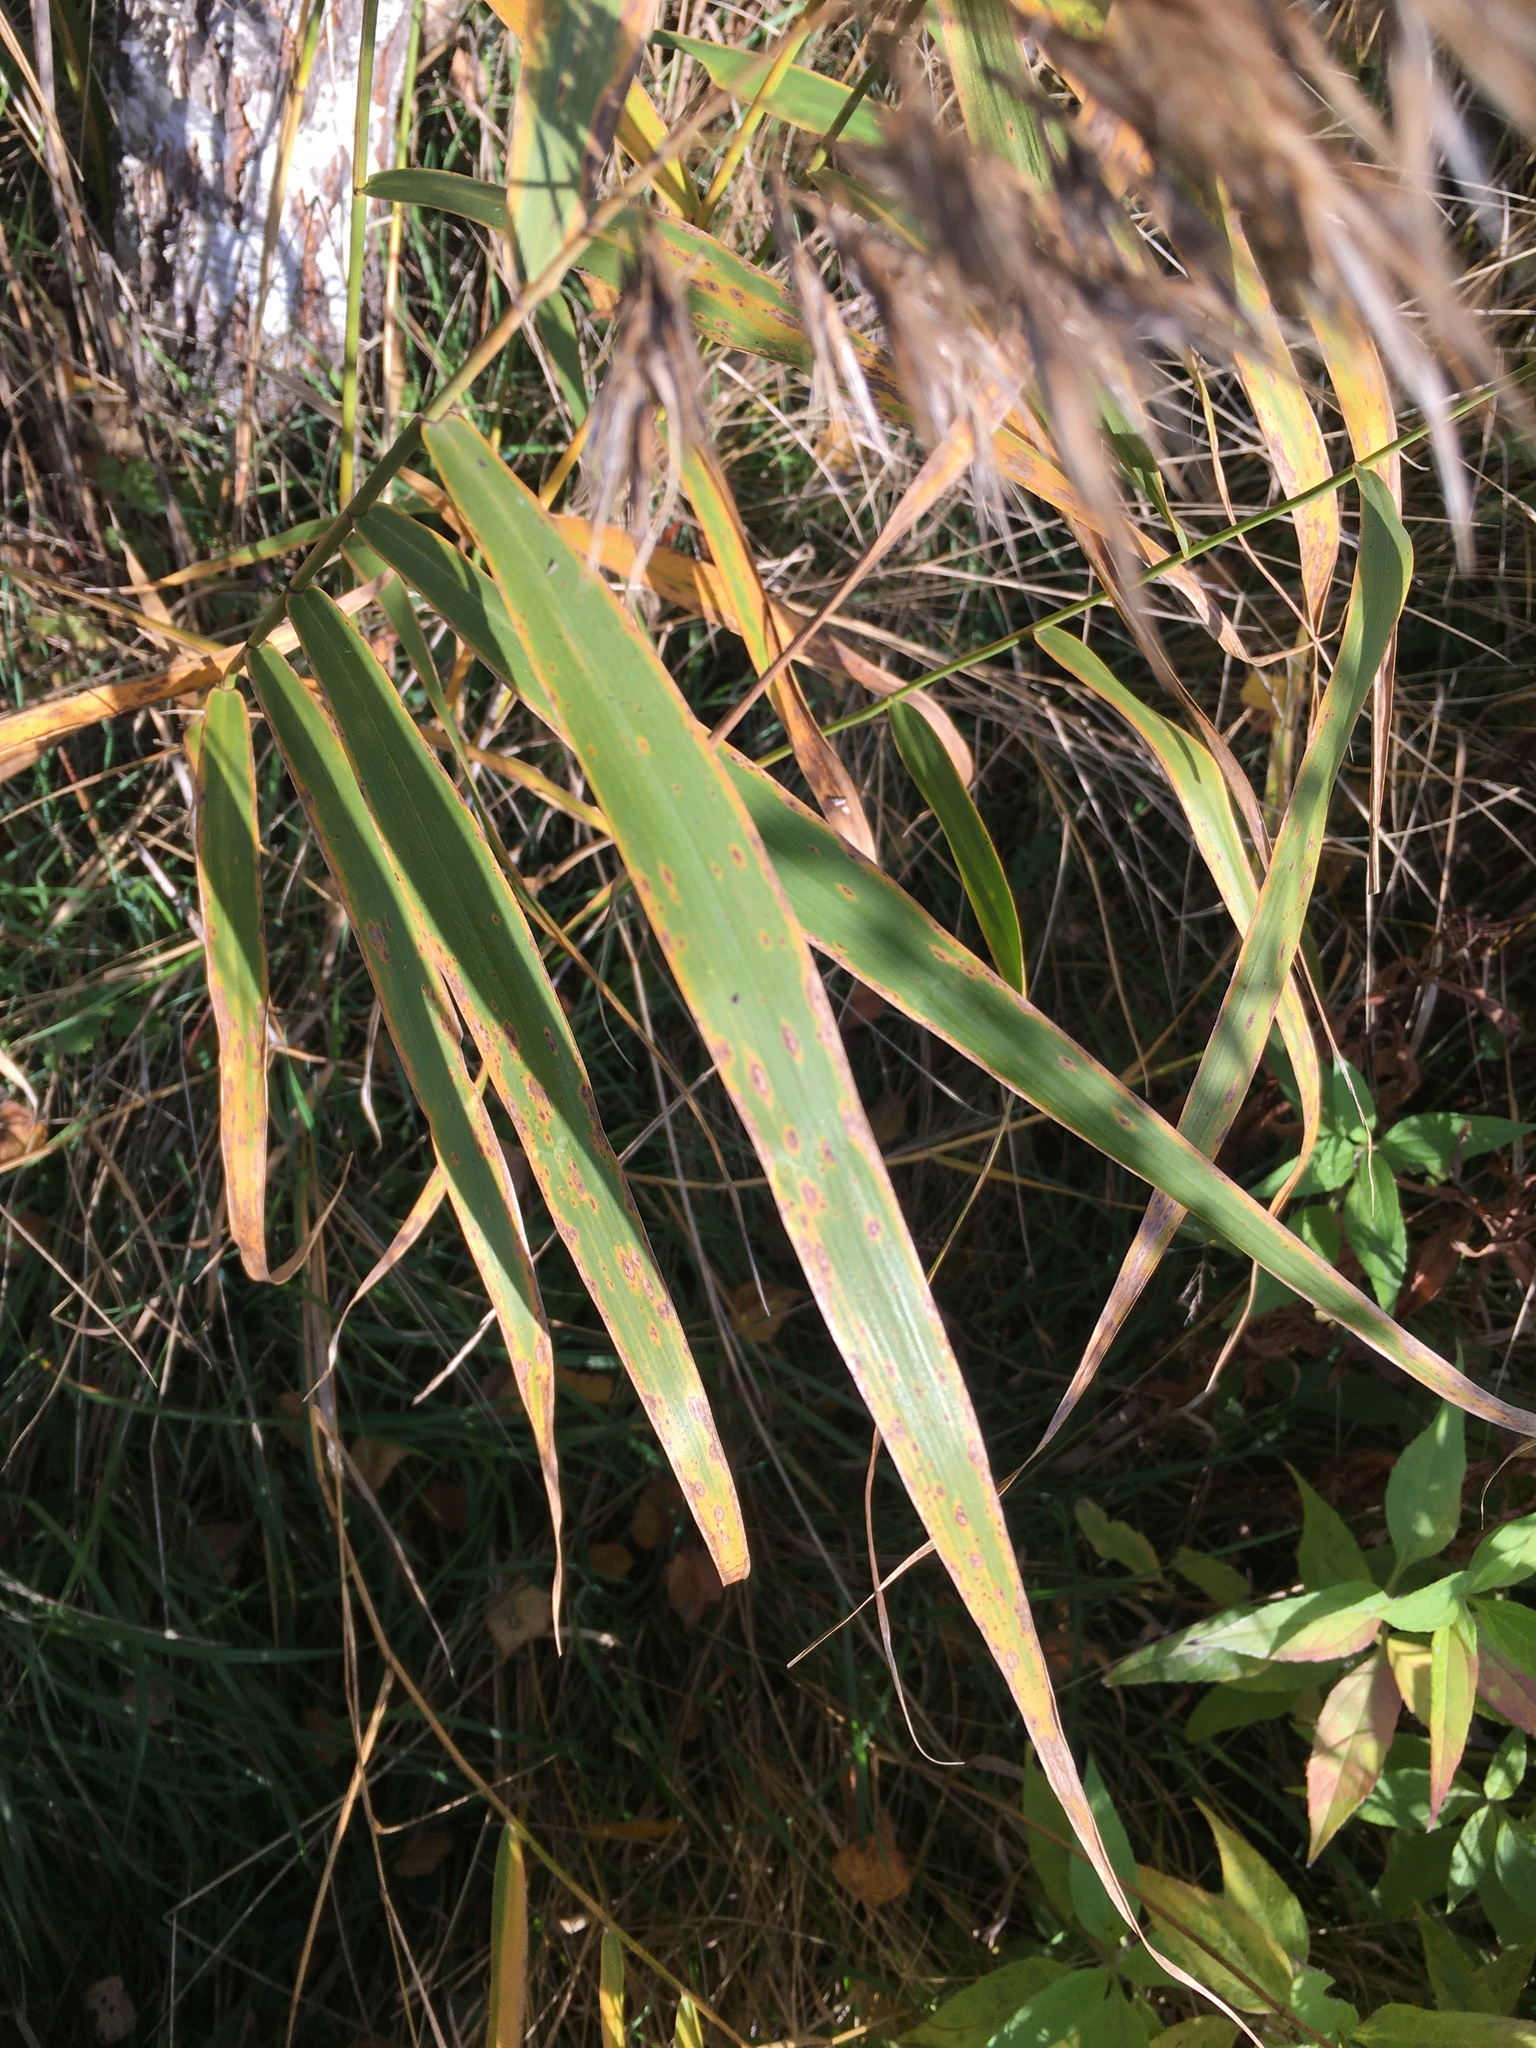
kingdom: Plantae
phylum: Tracheophyta
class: Liliopsida
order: Poales
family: Poaceae
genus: Phragmites
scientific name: Phragmites australis
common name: Common reed
